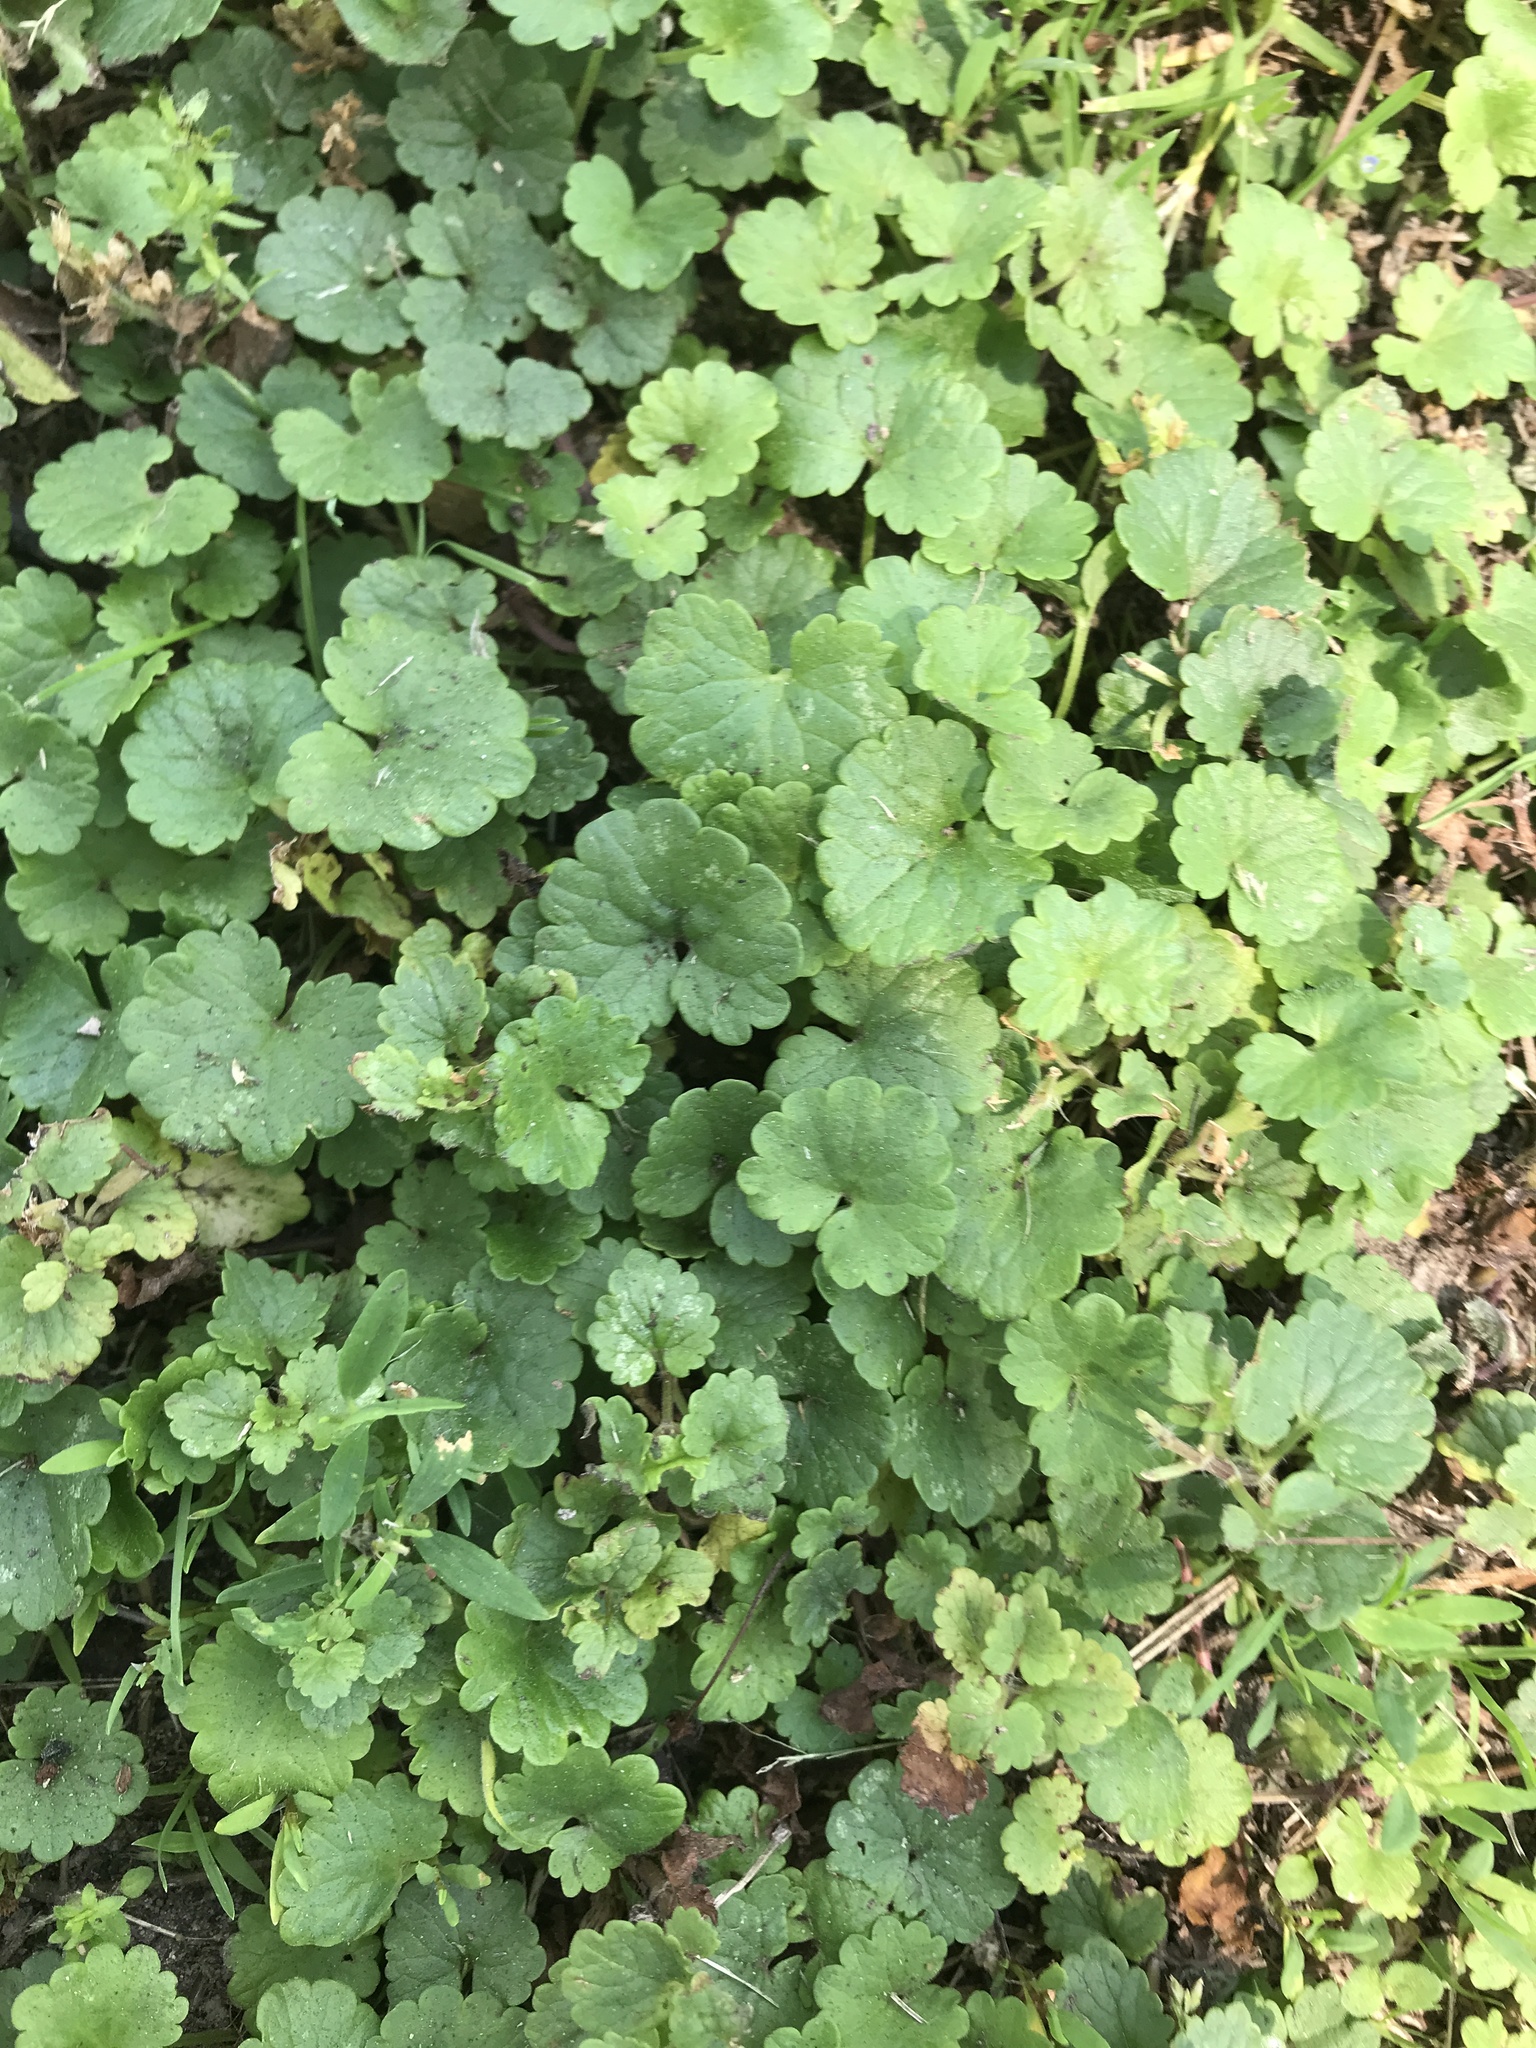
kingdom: Plantae
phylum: Tracheophyta
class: Magnoliopsida
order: Lamiales
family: Lamiaceae
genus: Glechoma
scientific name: Glechoma hederacea
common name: Ground ivy
